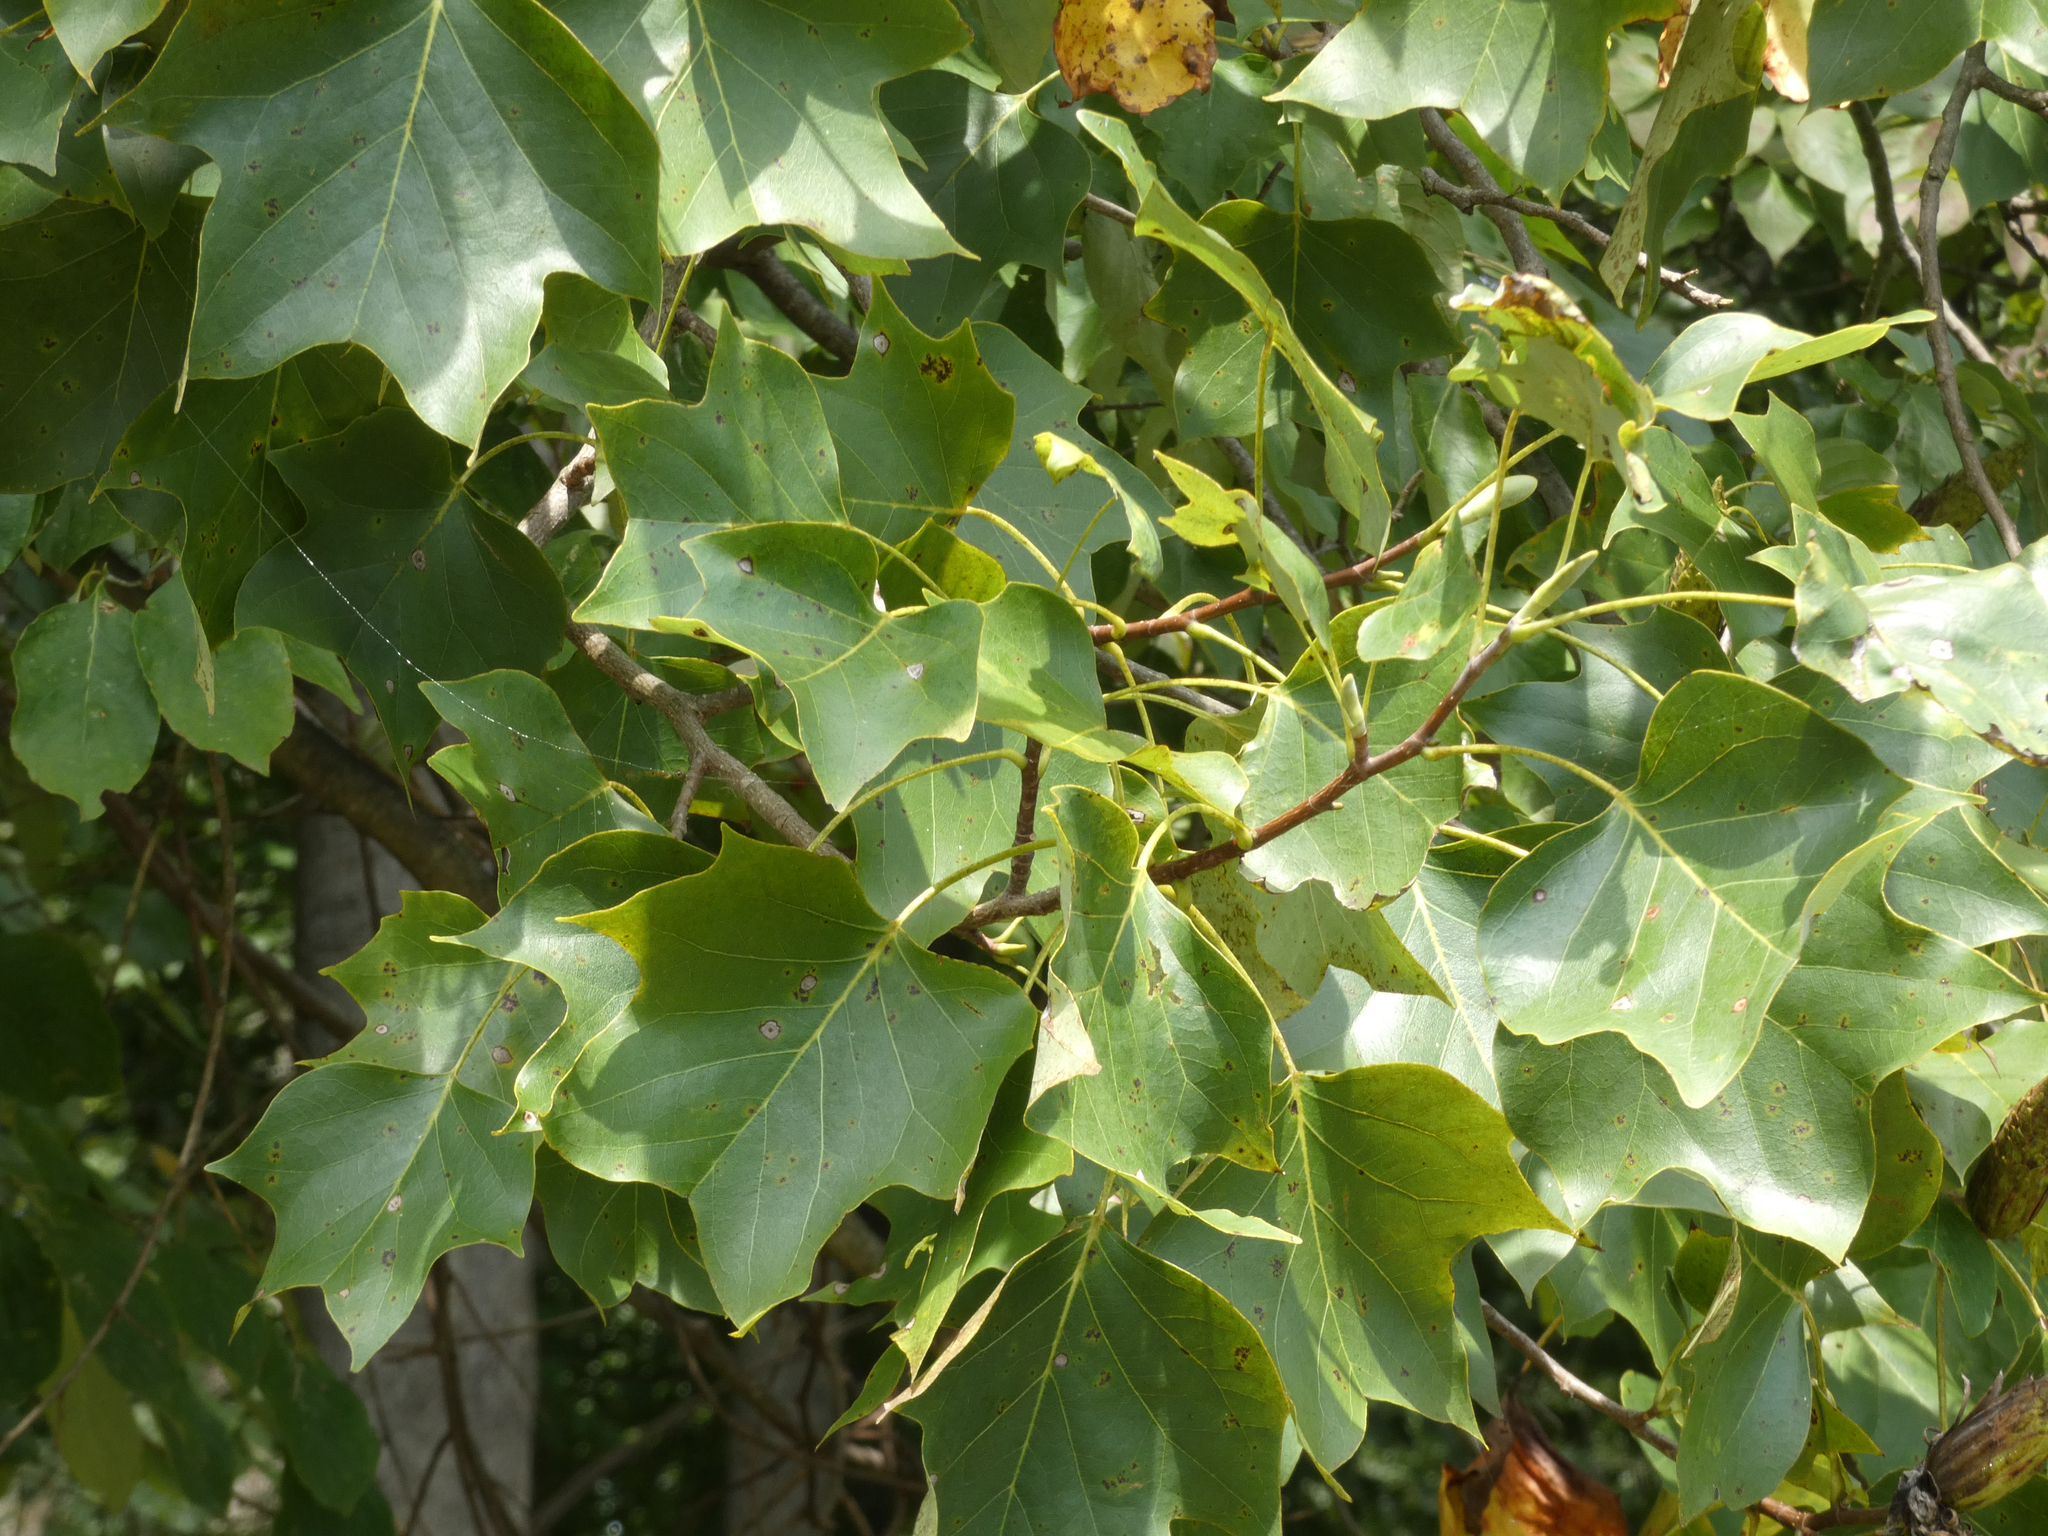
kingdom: Plantae
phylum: Tracheophyta
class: Magnoliopsida
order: Magnoliales
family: Magnoliaceae
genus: Liriodendron
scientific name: Liriodendron tulipifera
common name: Tulip tree
